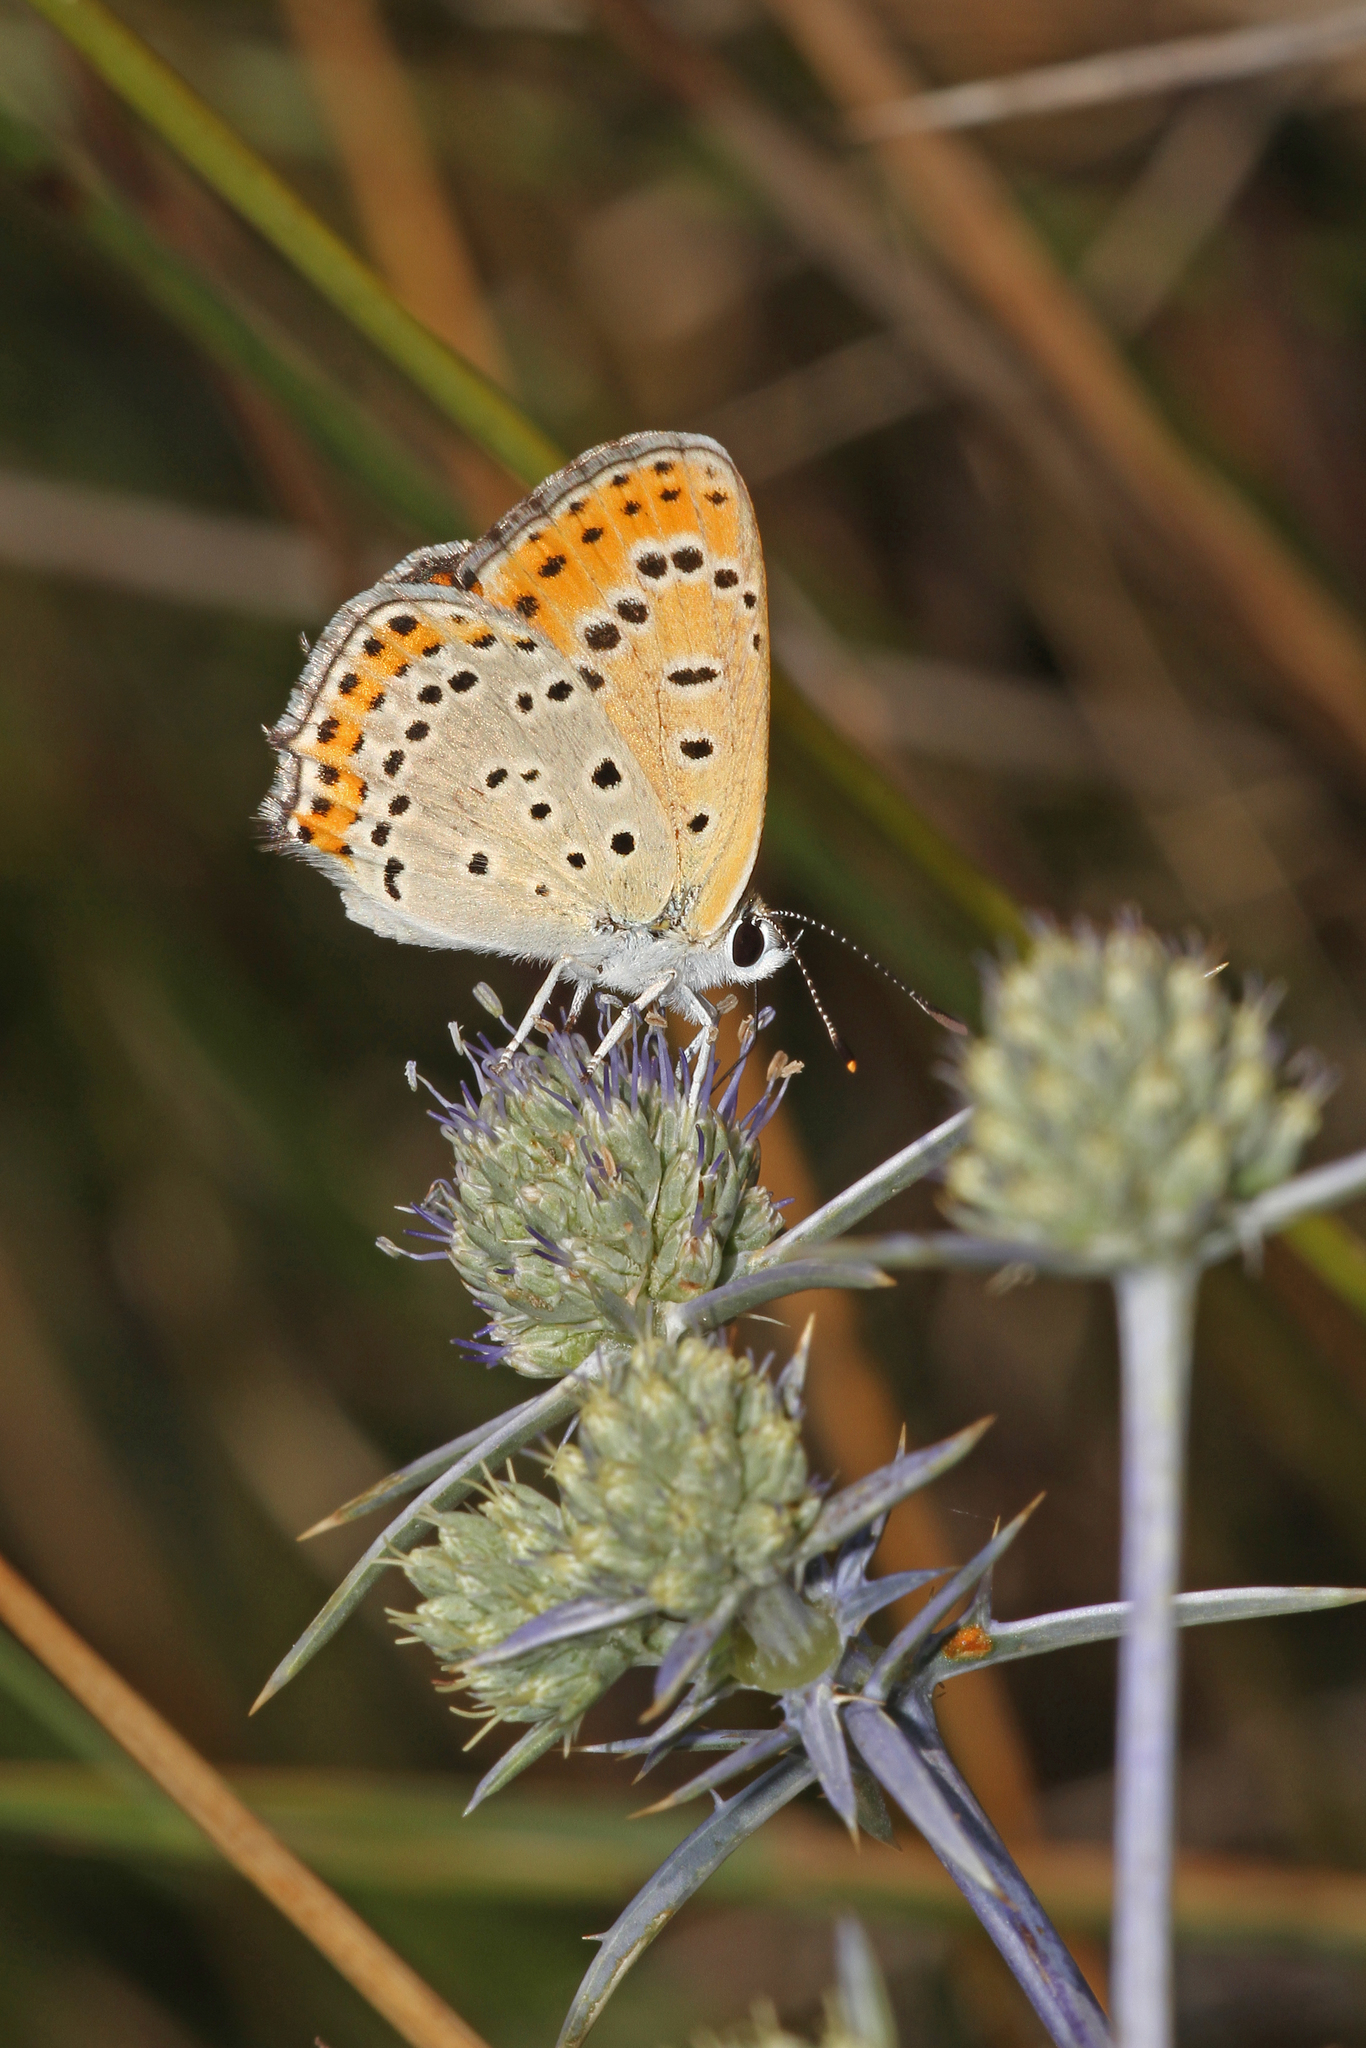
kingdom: Animalia
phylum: Arthropoda
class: Insecta
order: Lepidoptera
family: Lycaenidae
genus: Thersamonia
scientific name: Thersamonia thersamon
